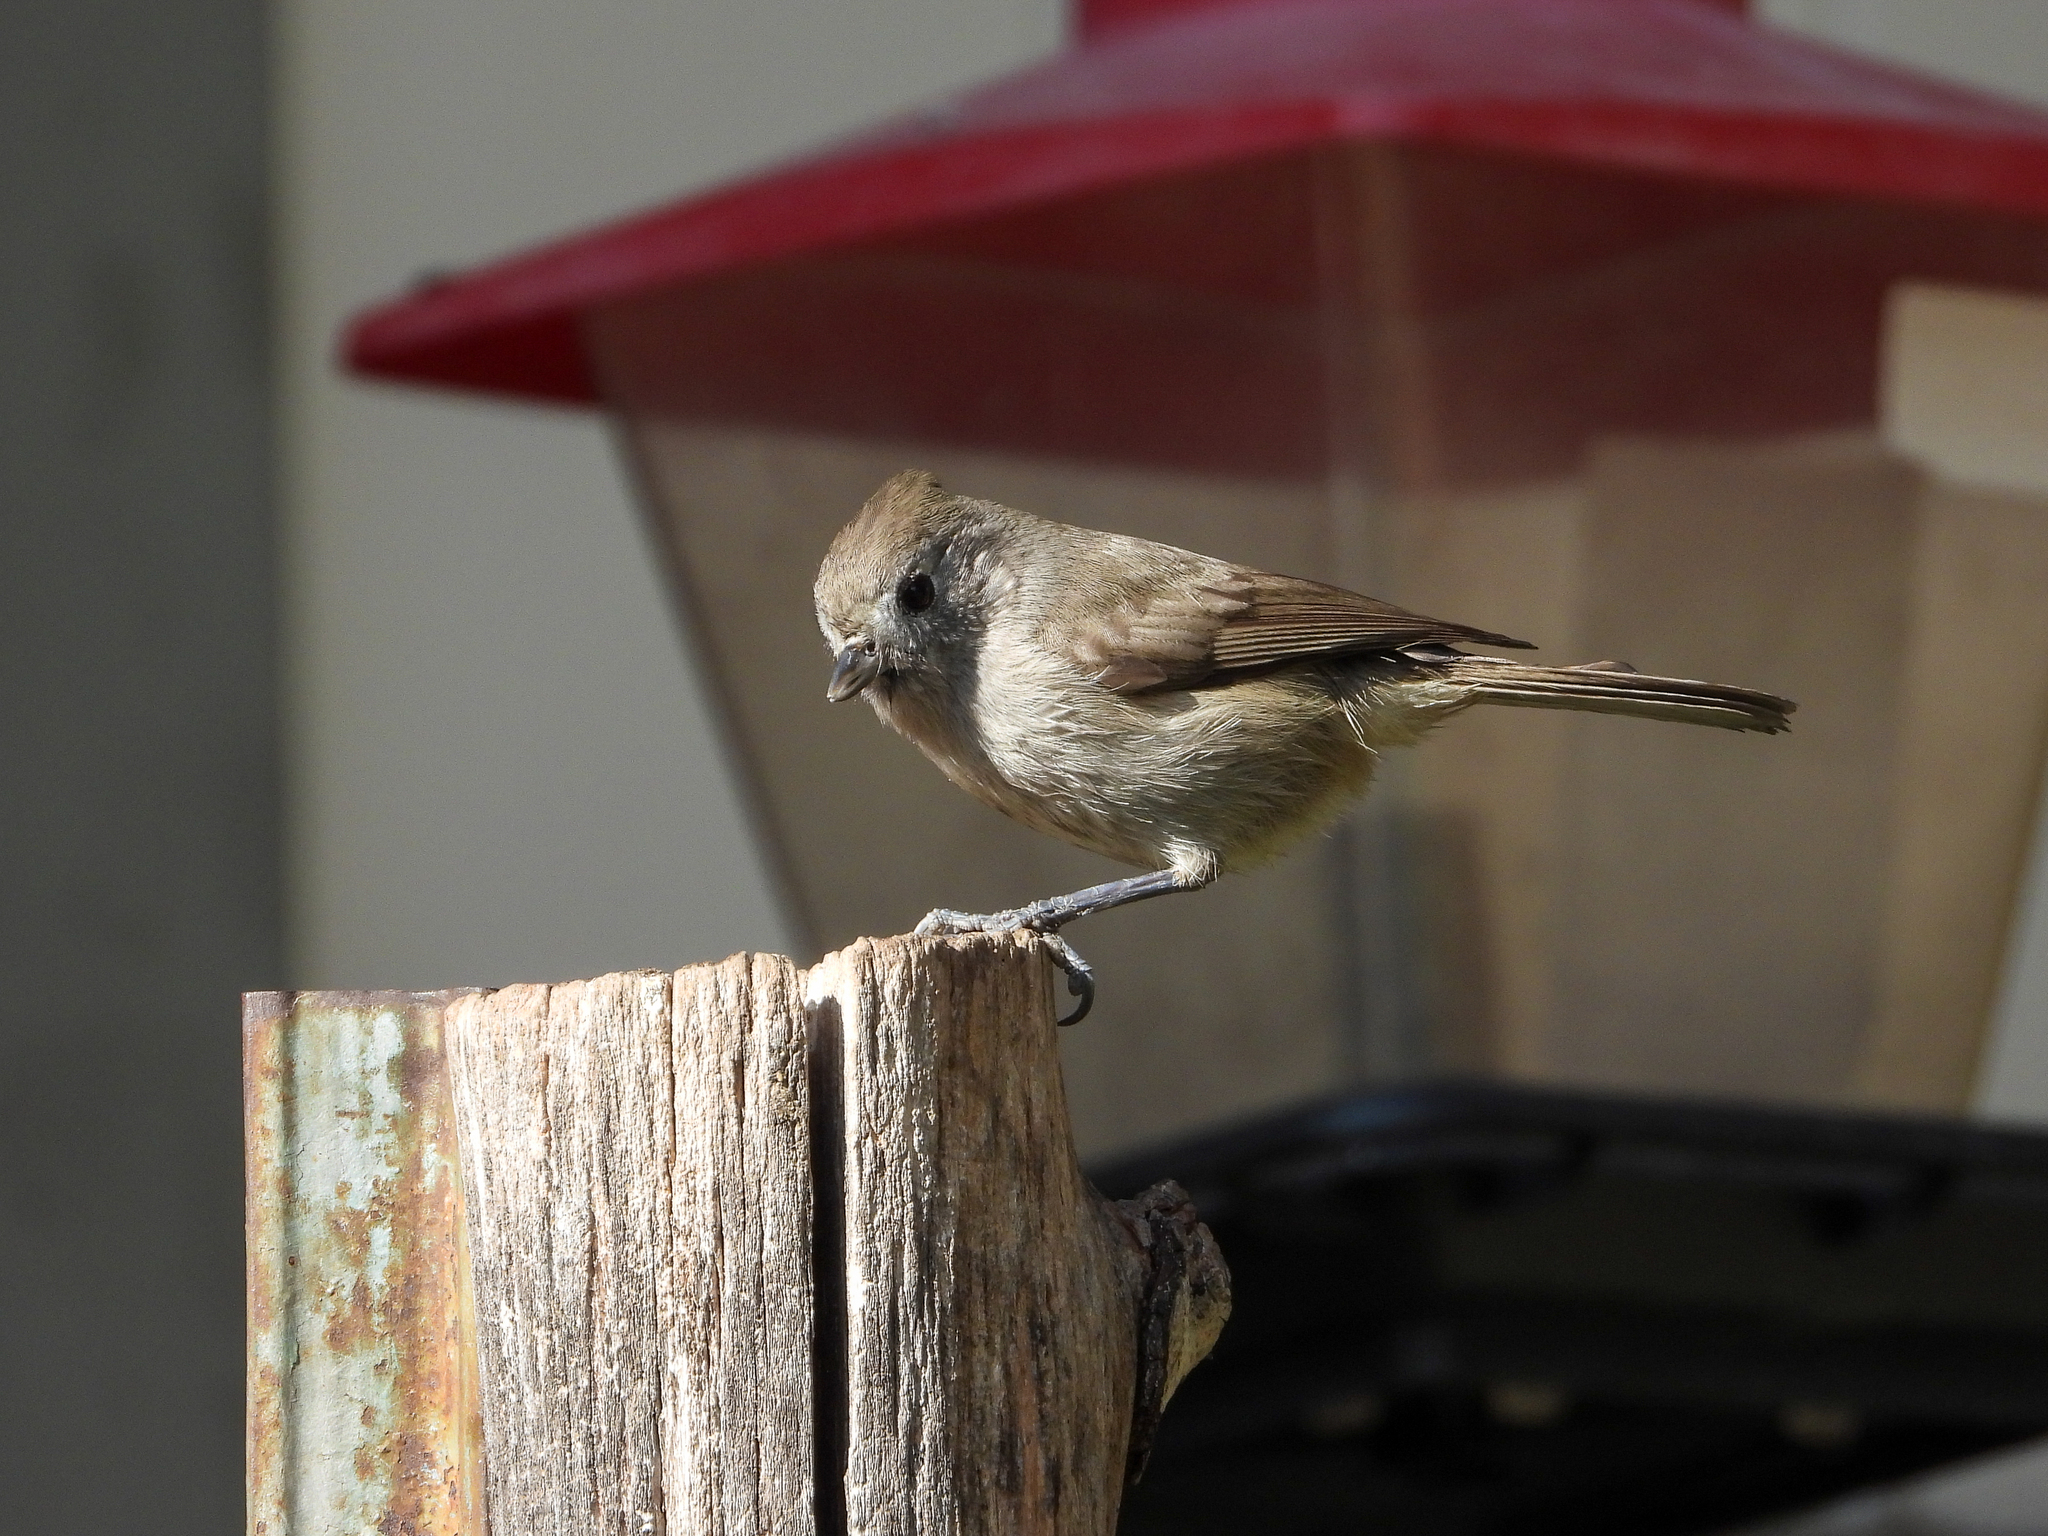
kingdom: Animalia
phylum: Chordata
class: Aves
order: Passeriformes
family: Paridae
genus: Baeolophus
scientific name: Baeolophus inornatus
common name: Oak titmouse
